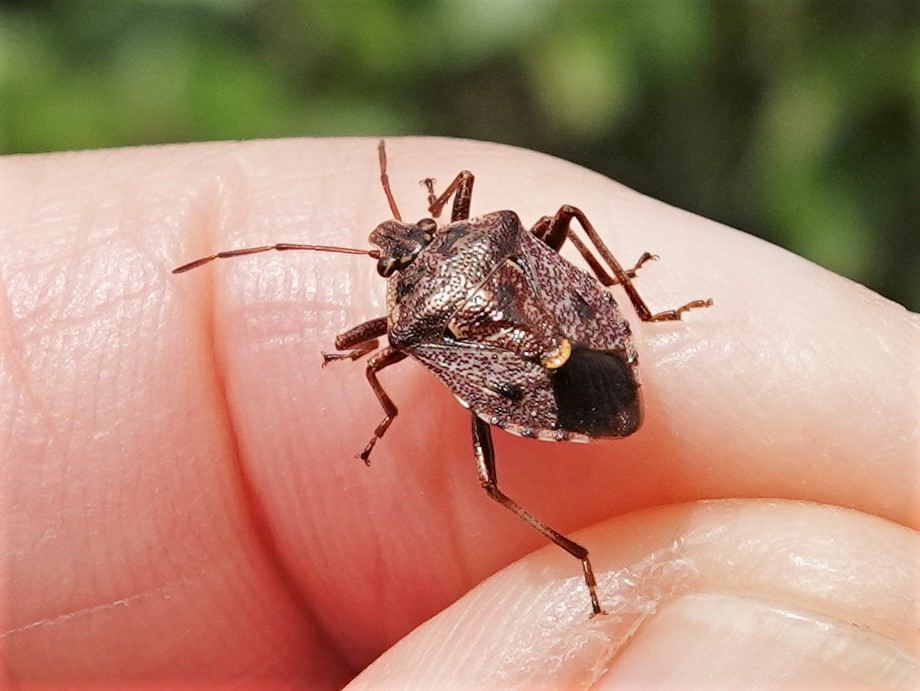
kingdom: Animalia
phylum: Arthropoda
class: Insecta
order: Hemiptera
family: Pentatomidae
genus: Cermatulus
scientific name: Cermatulus nasalis
